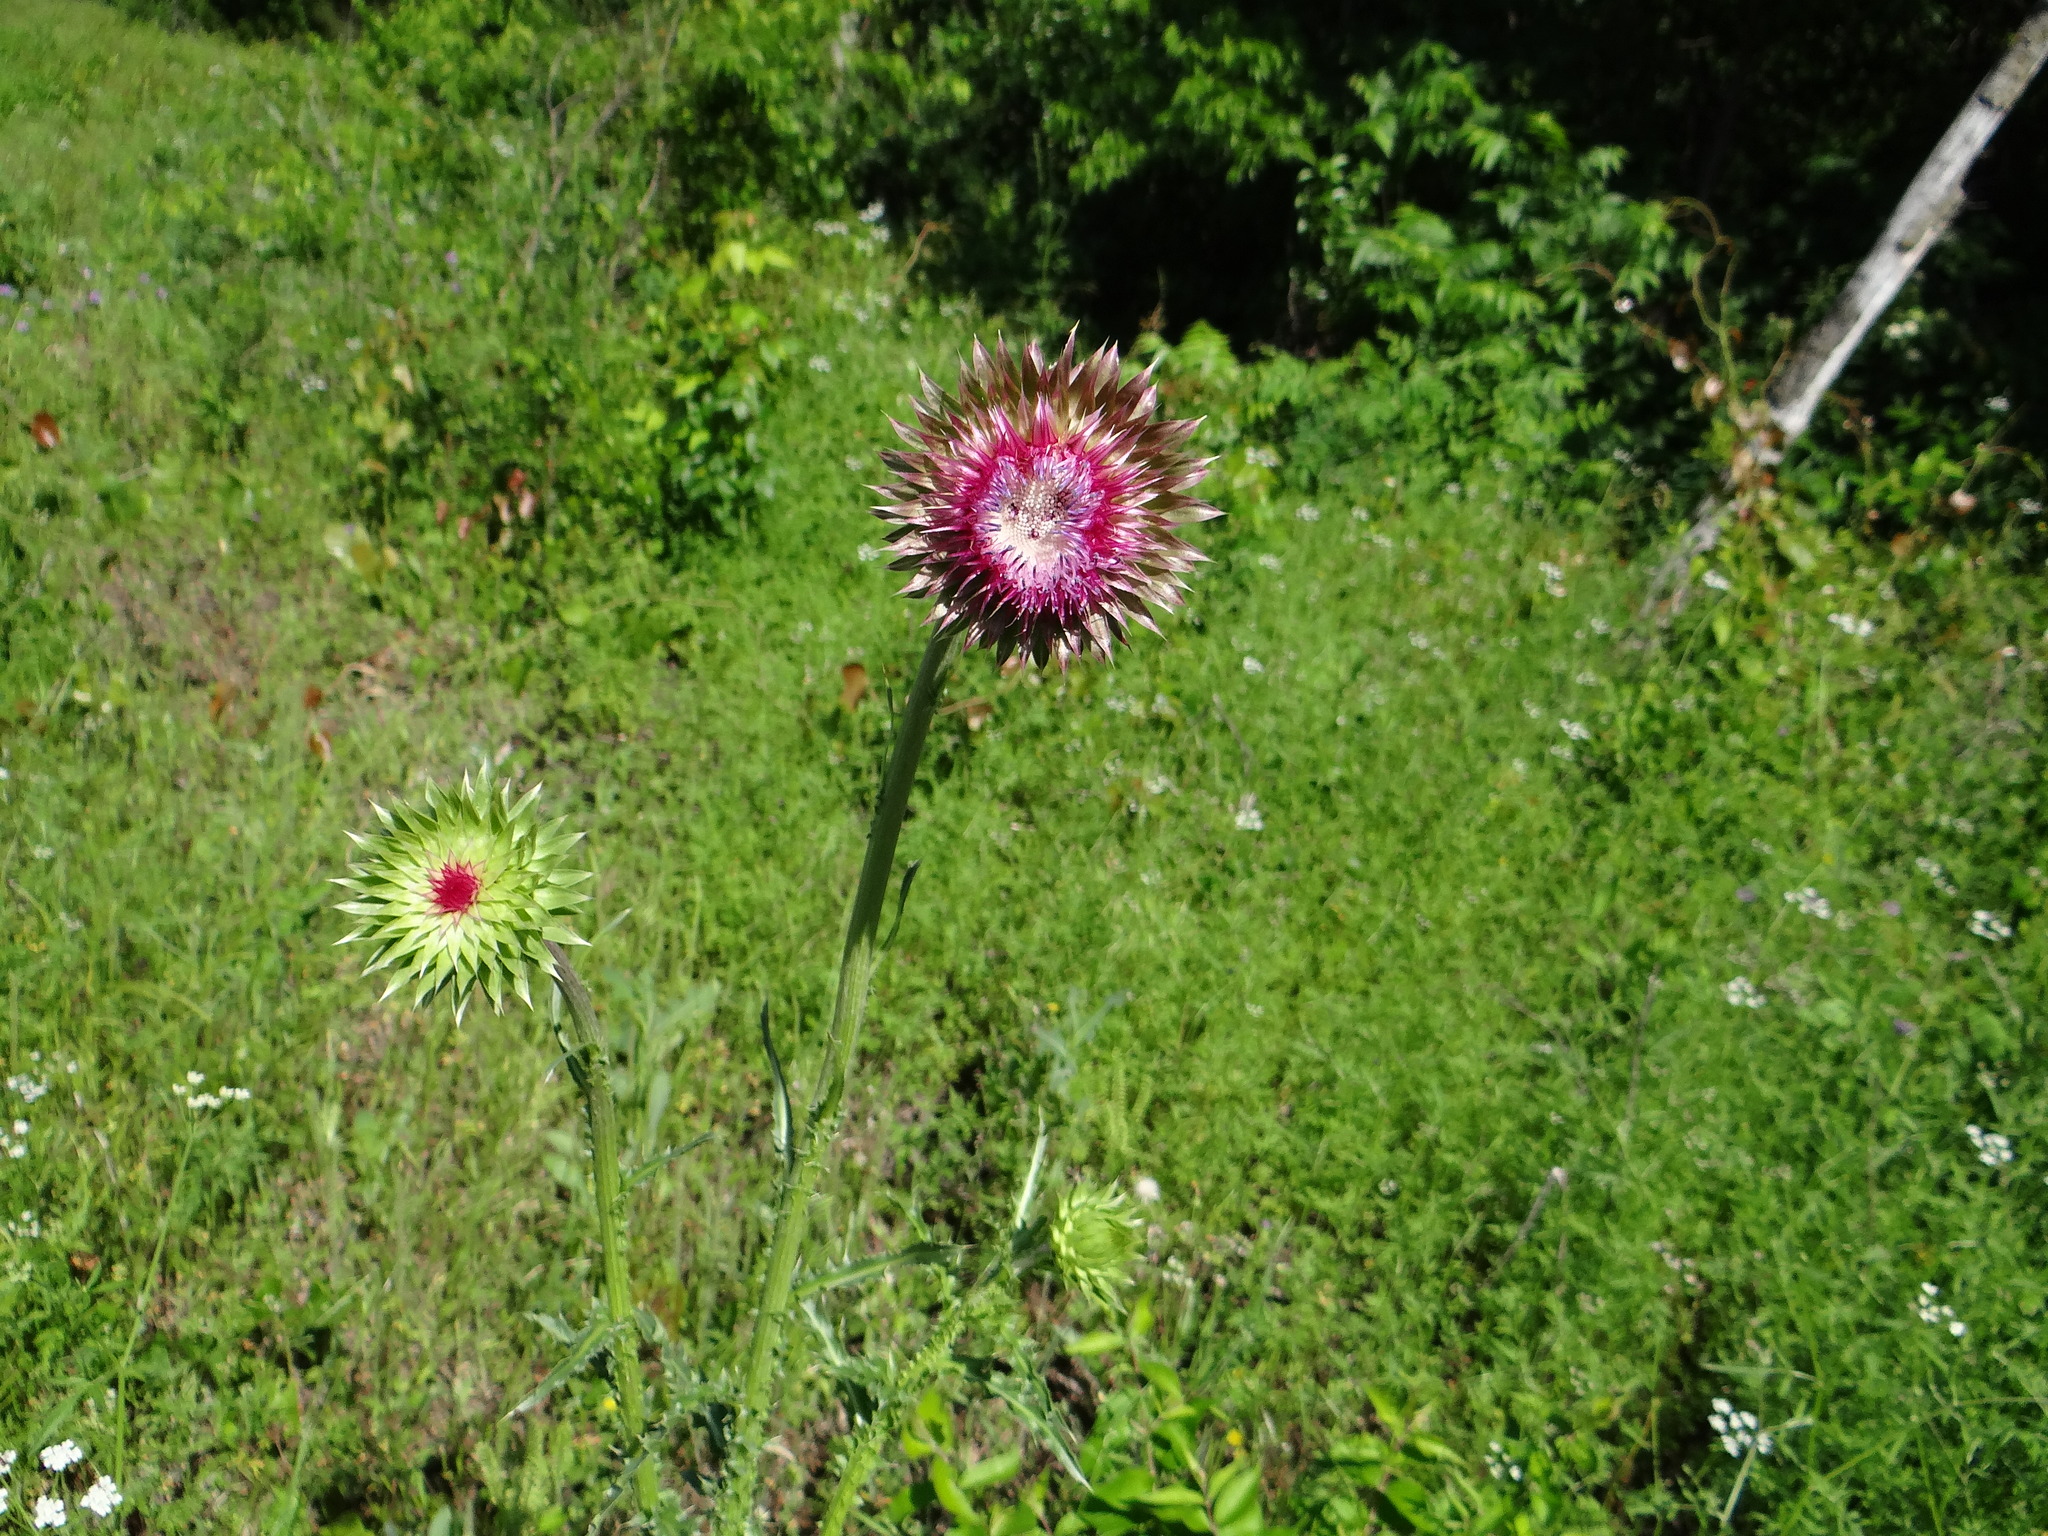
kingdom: Plantae
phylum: Tracheophyta
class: Magnoliopsida
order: Asterales
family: Asteraceae
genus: Carduus
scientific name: Carduus nutans
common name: Musk thistle
